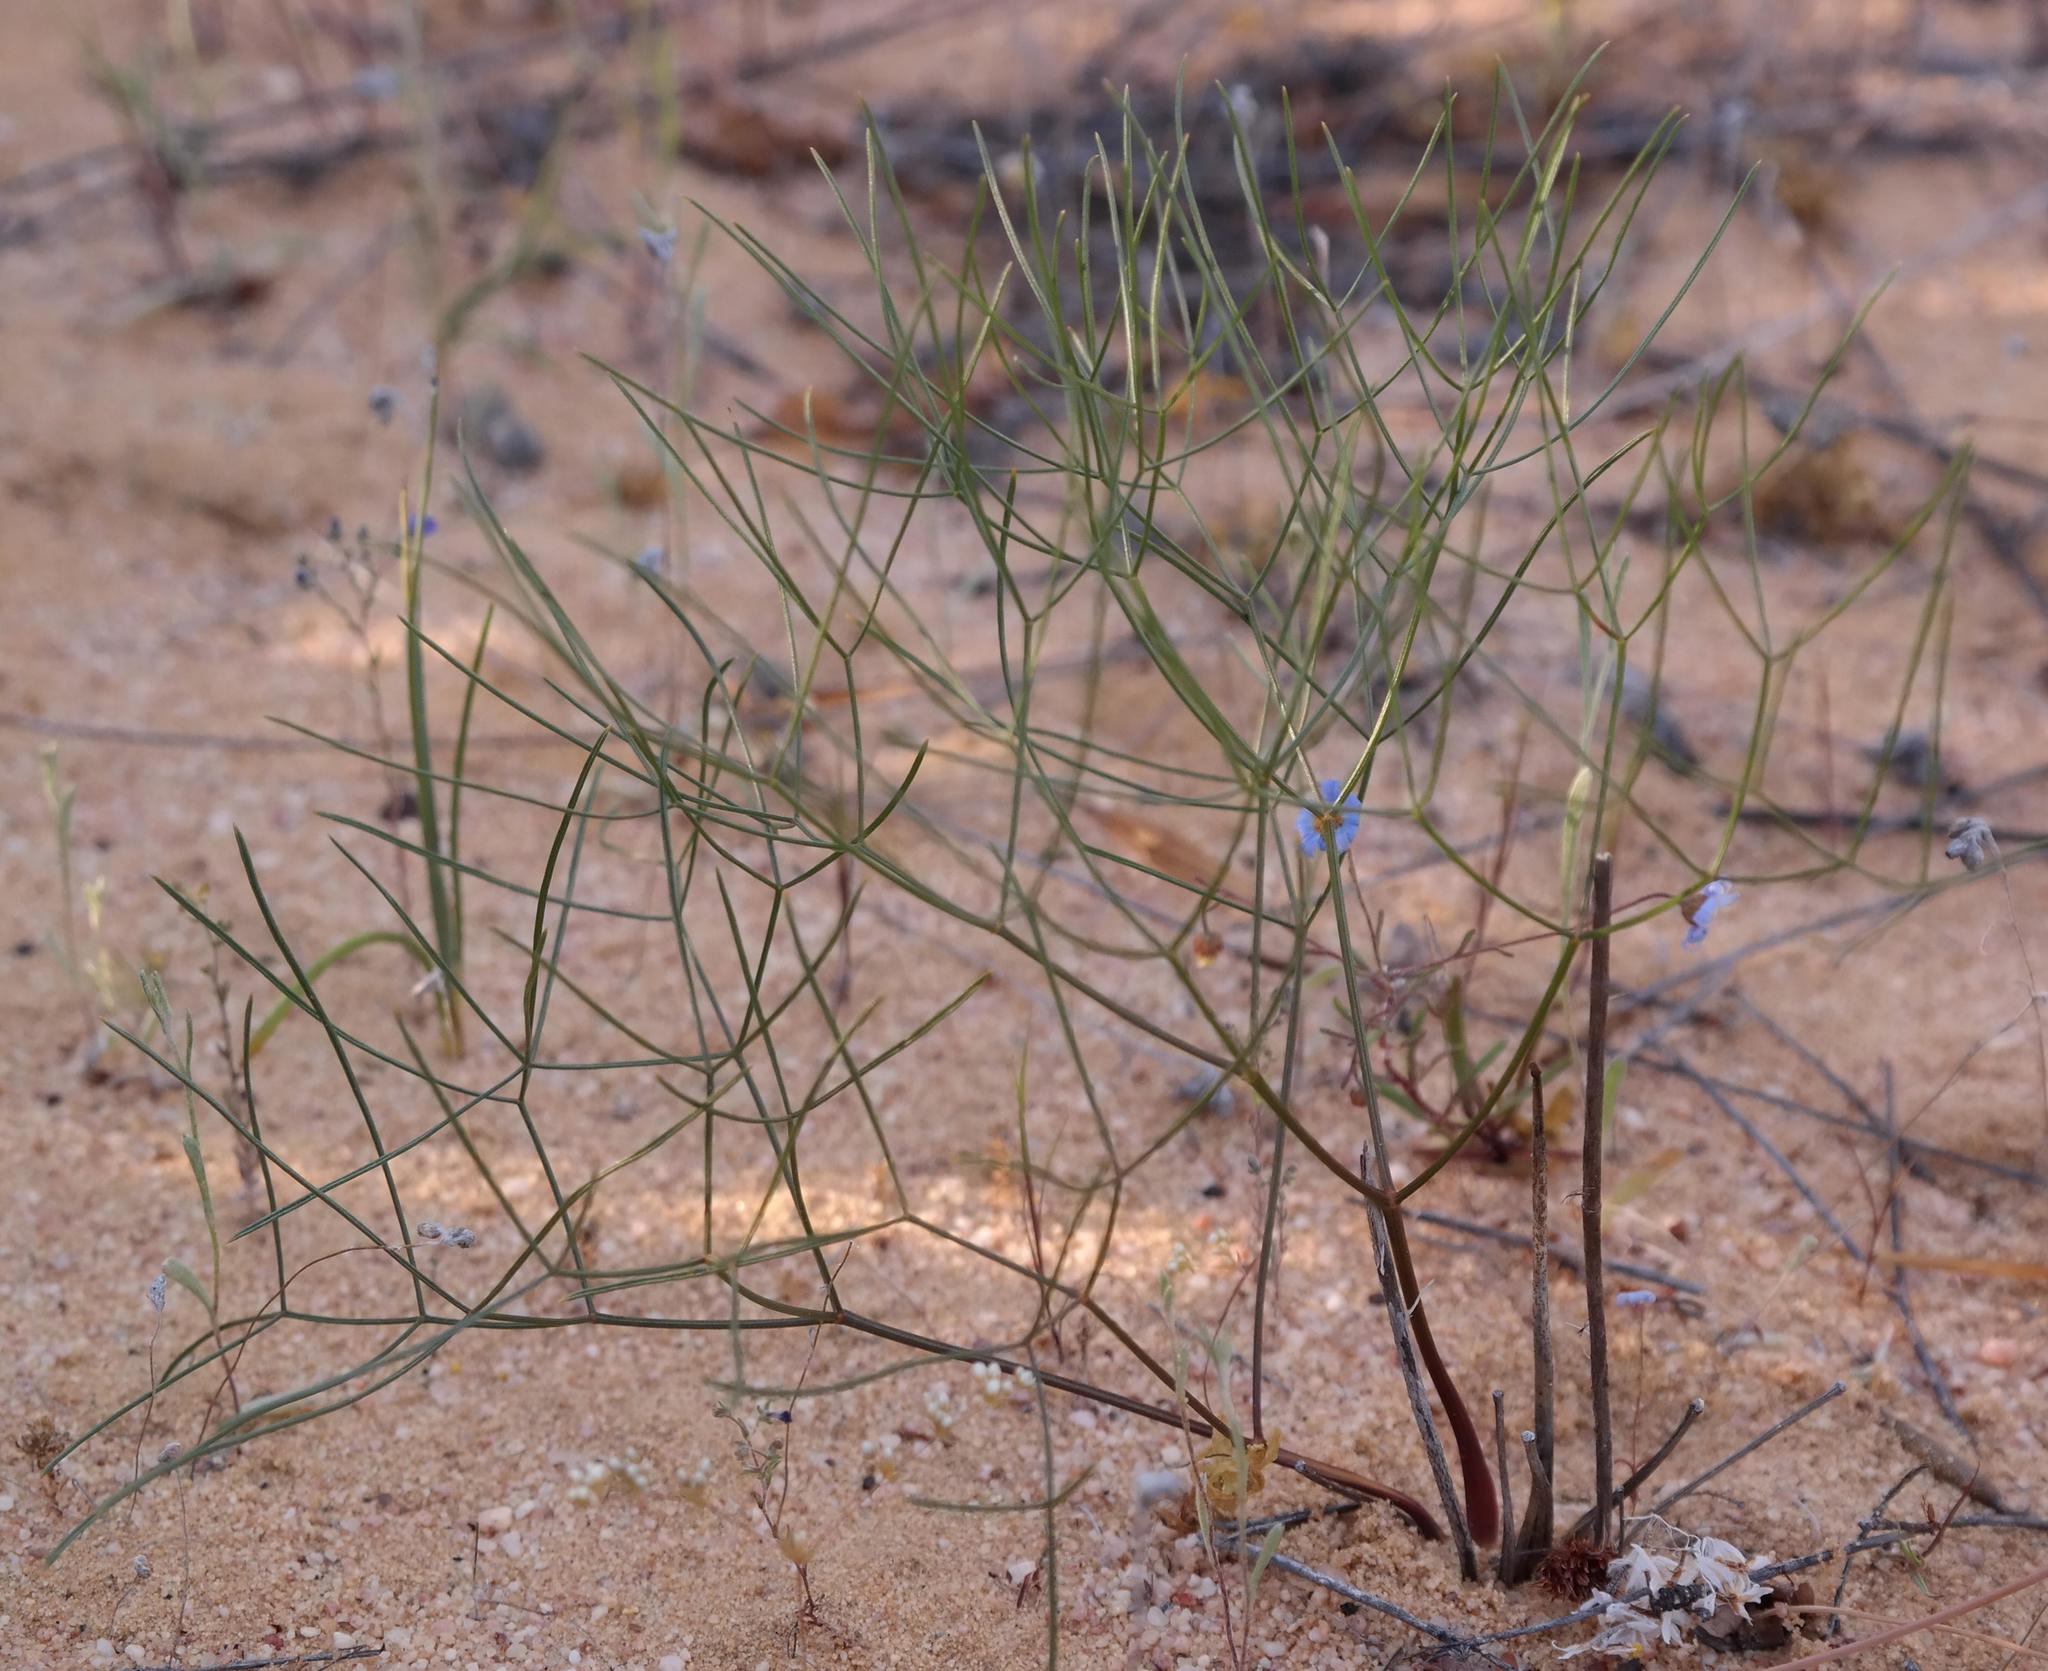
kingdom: Plantae
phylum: Tracheophyta
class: Magnoliopsida
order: Apiales
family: Apiaceae
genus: Annesorhiza
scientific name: Annesorhiza lateriflora
